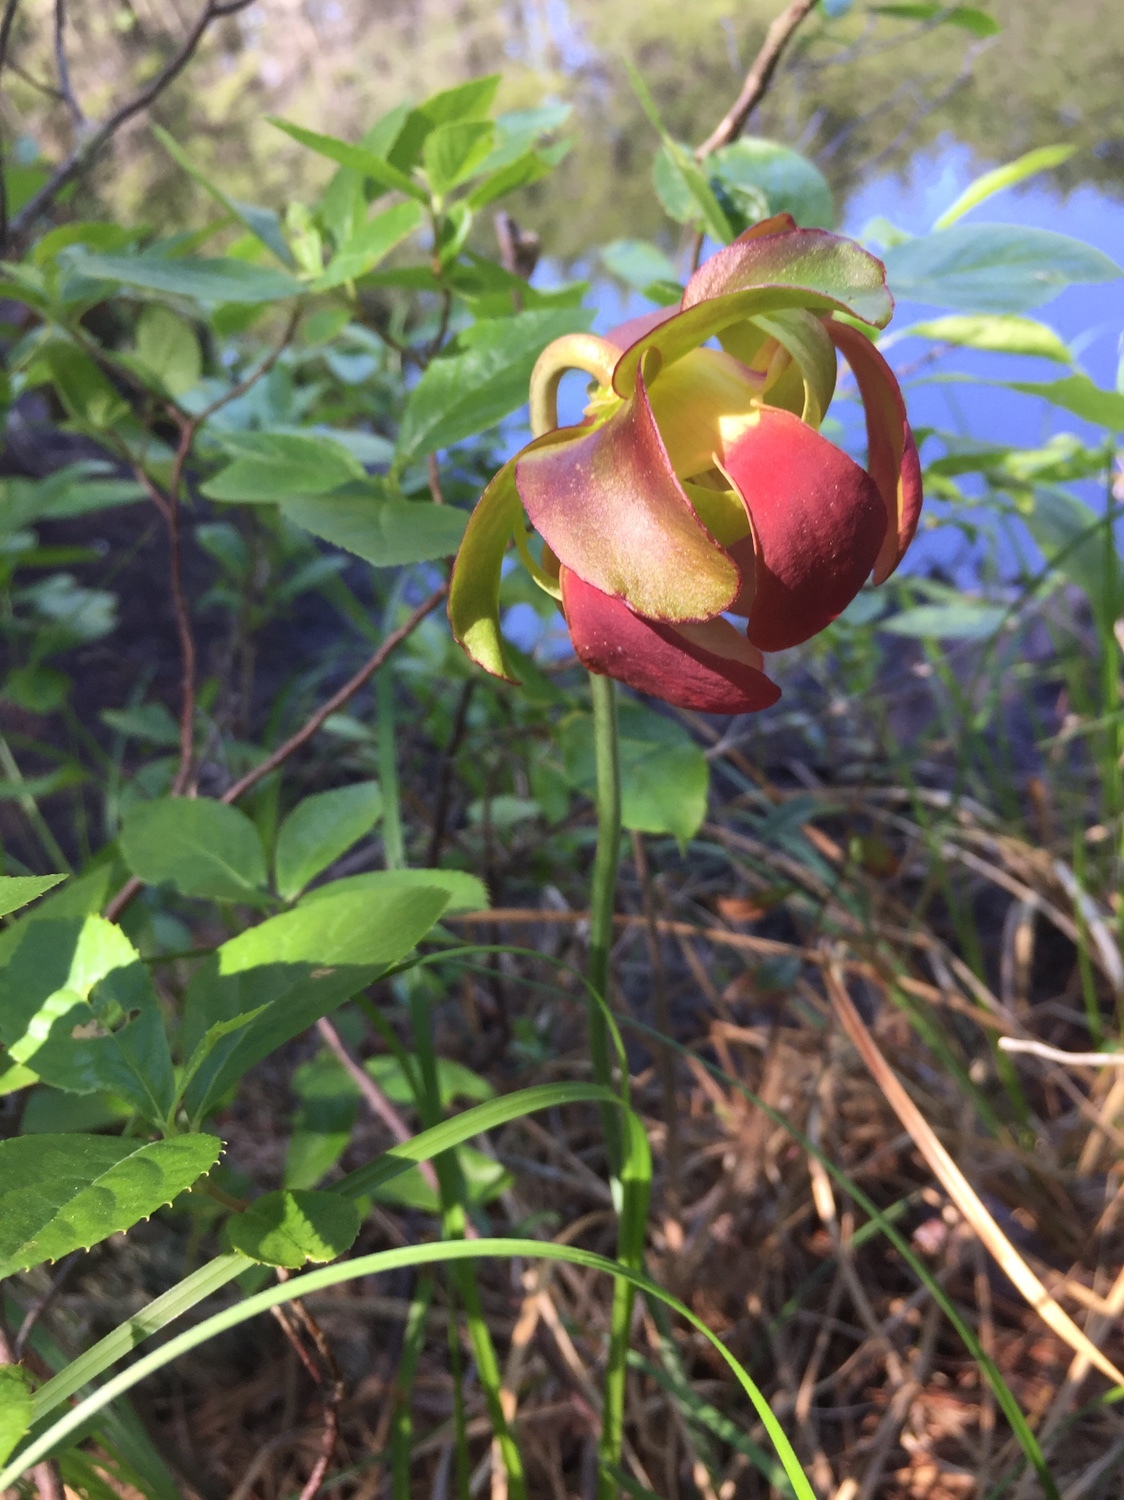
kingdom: Plantae
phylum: Tracheophyta
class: Magnoliopsida
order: Ericales
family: Sarraceniaceae
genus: Sarracenia
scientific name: Sarracenia purpurea
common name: Pitcherplant
